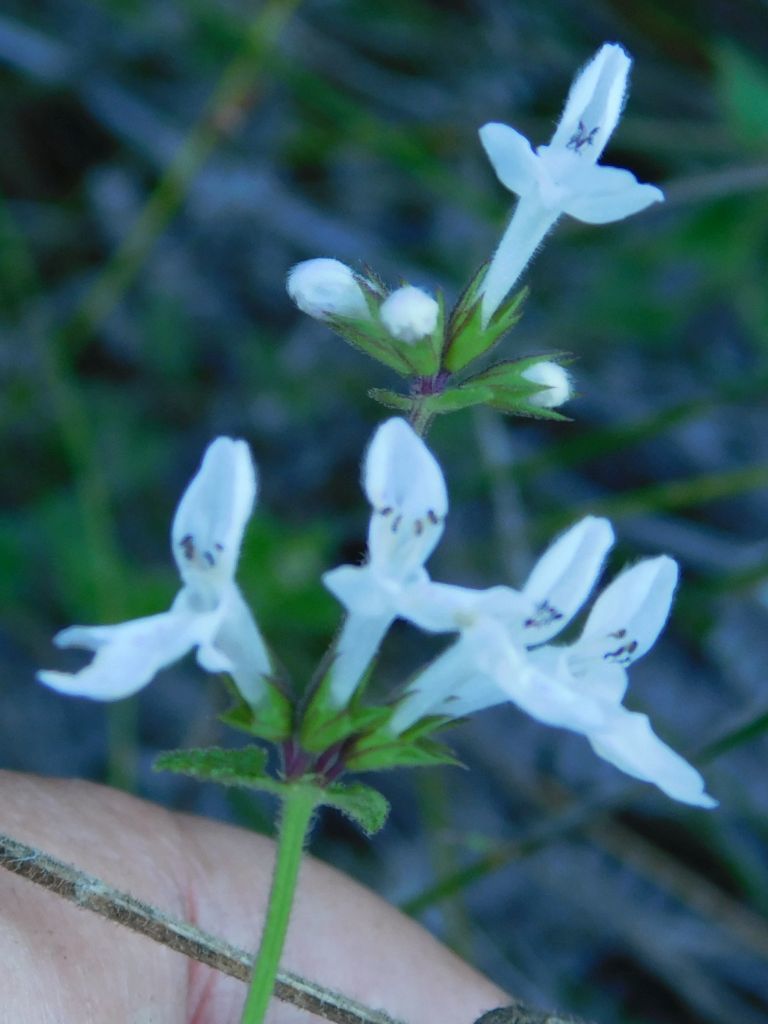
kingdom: Plantae
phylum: Tracheophyta
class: Magnoliopsida
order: Lamiales
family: Lamiaceae
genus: Stachys
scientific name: Stachys aethiopica
